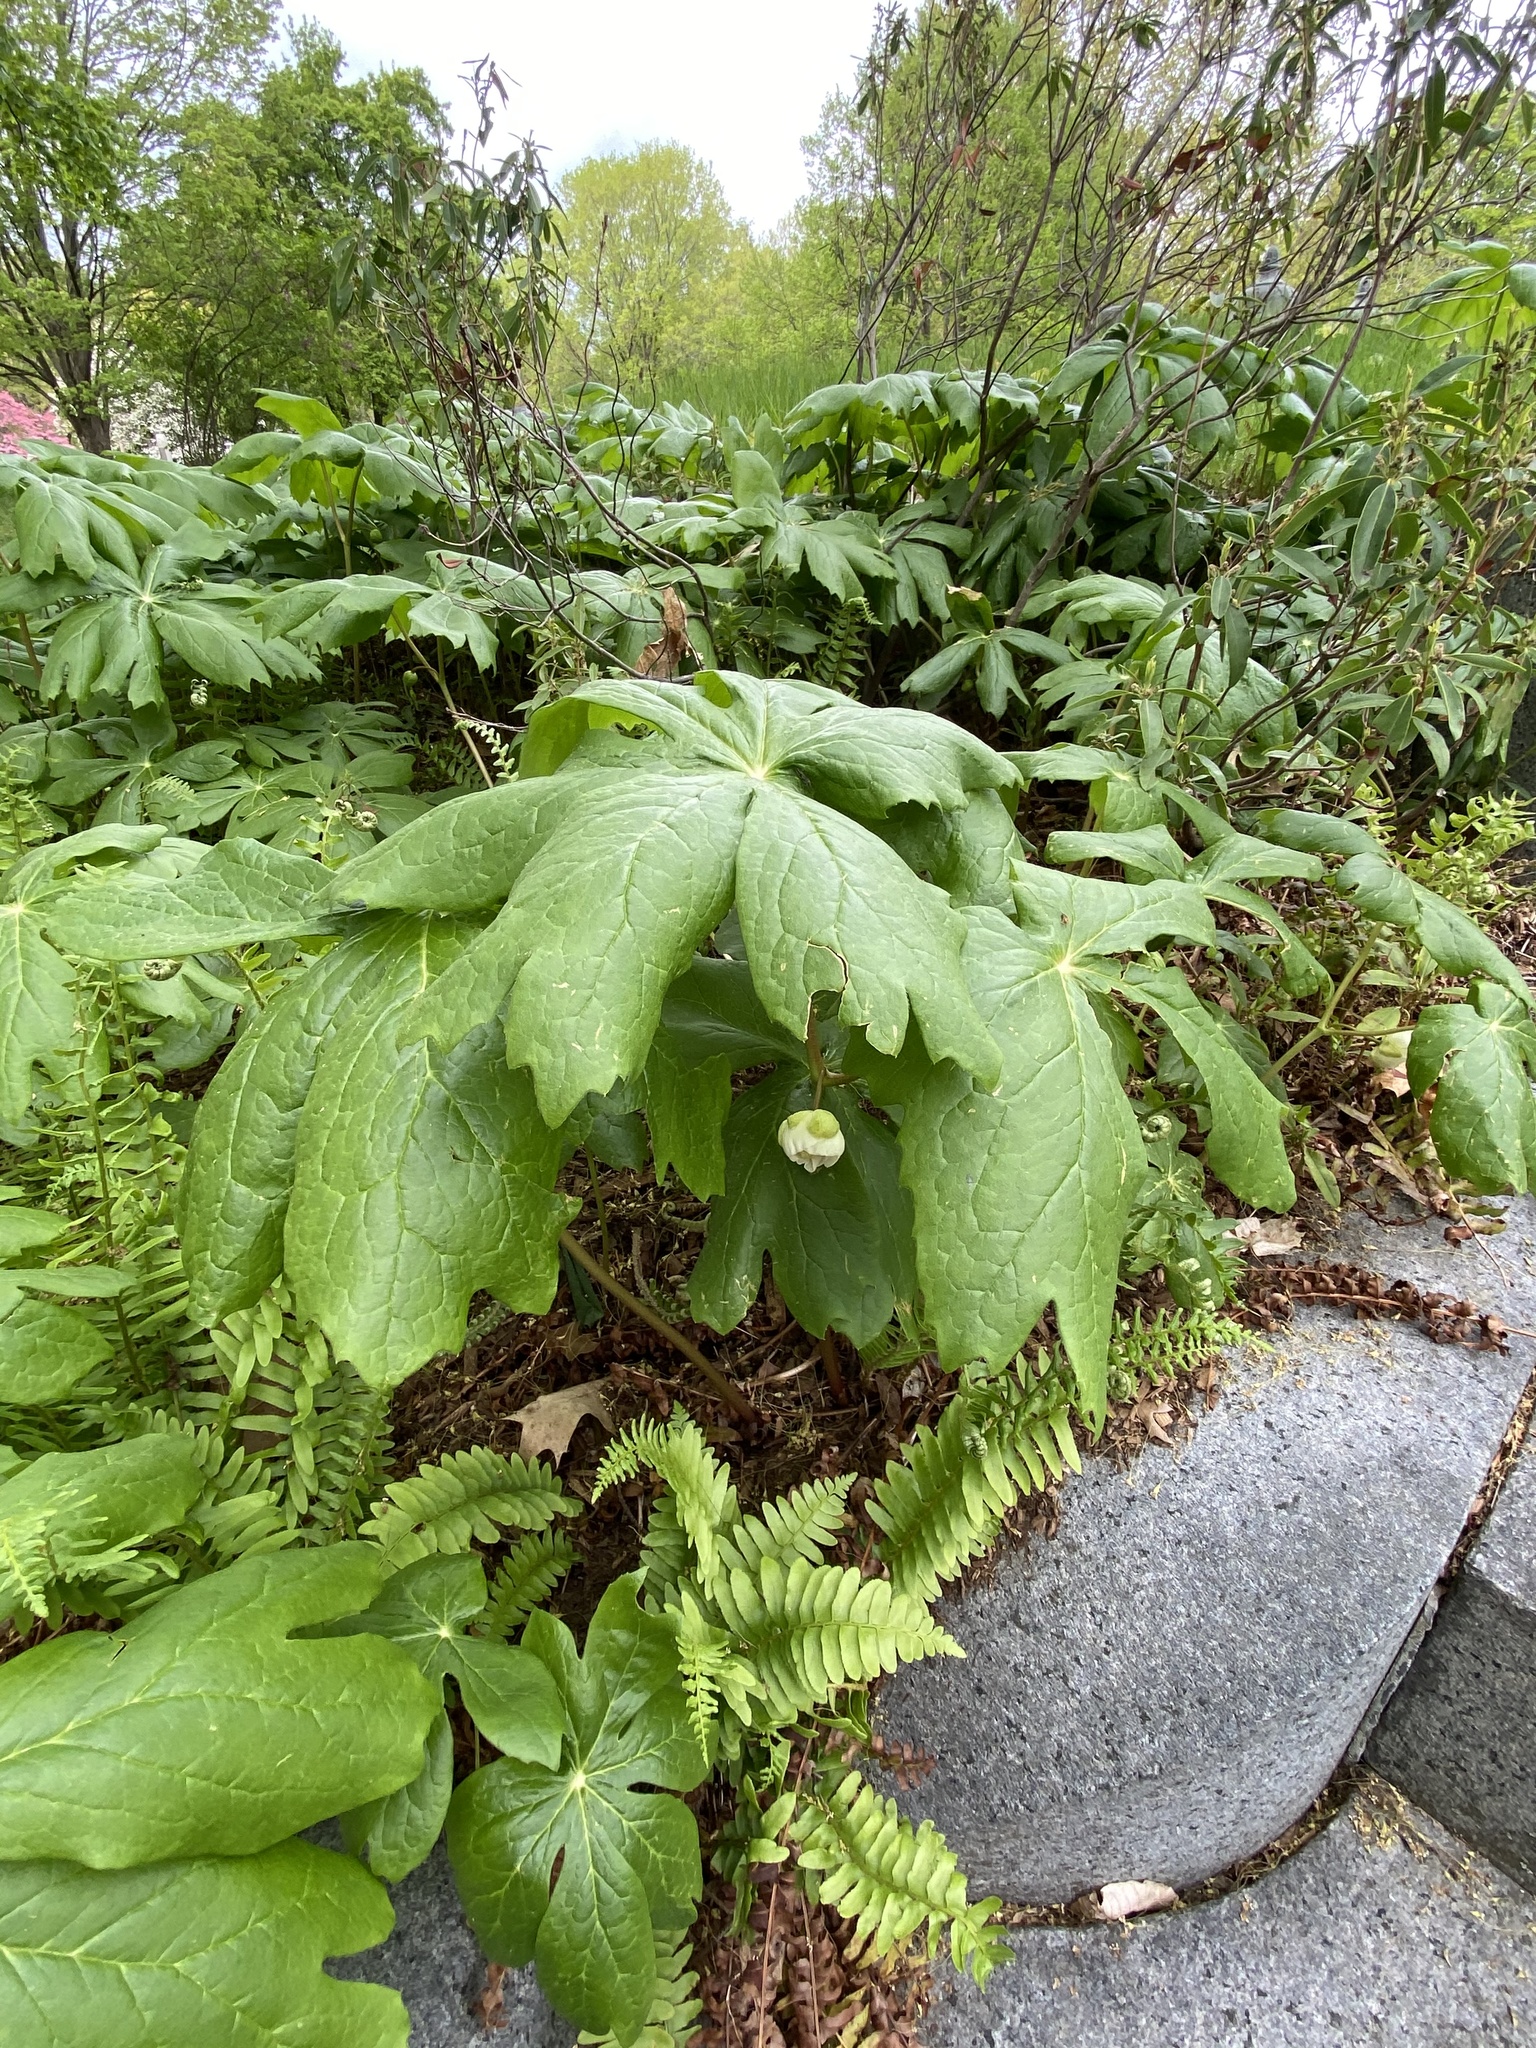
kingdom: Plantae
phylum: Tracheophyta
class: Magnoliopsida
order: Ranunculales
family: Berberidaceae
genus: Podophyllum
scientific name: Podophyllum peltatum
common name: Wild mandrake
